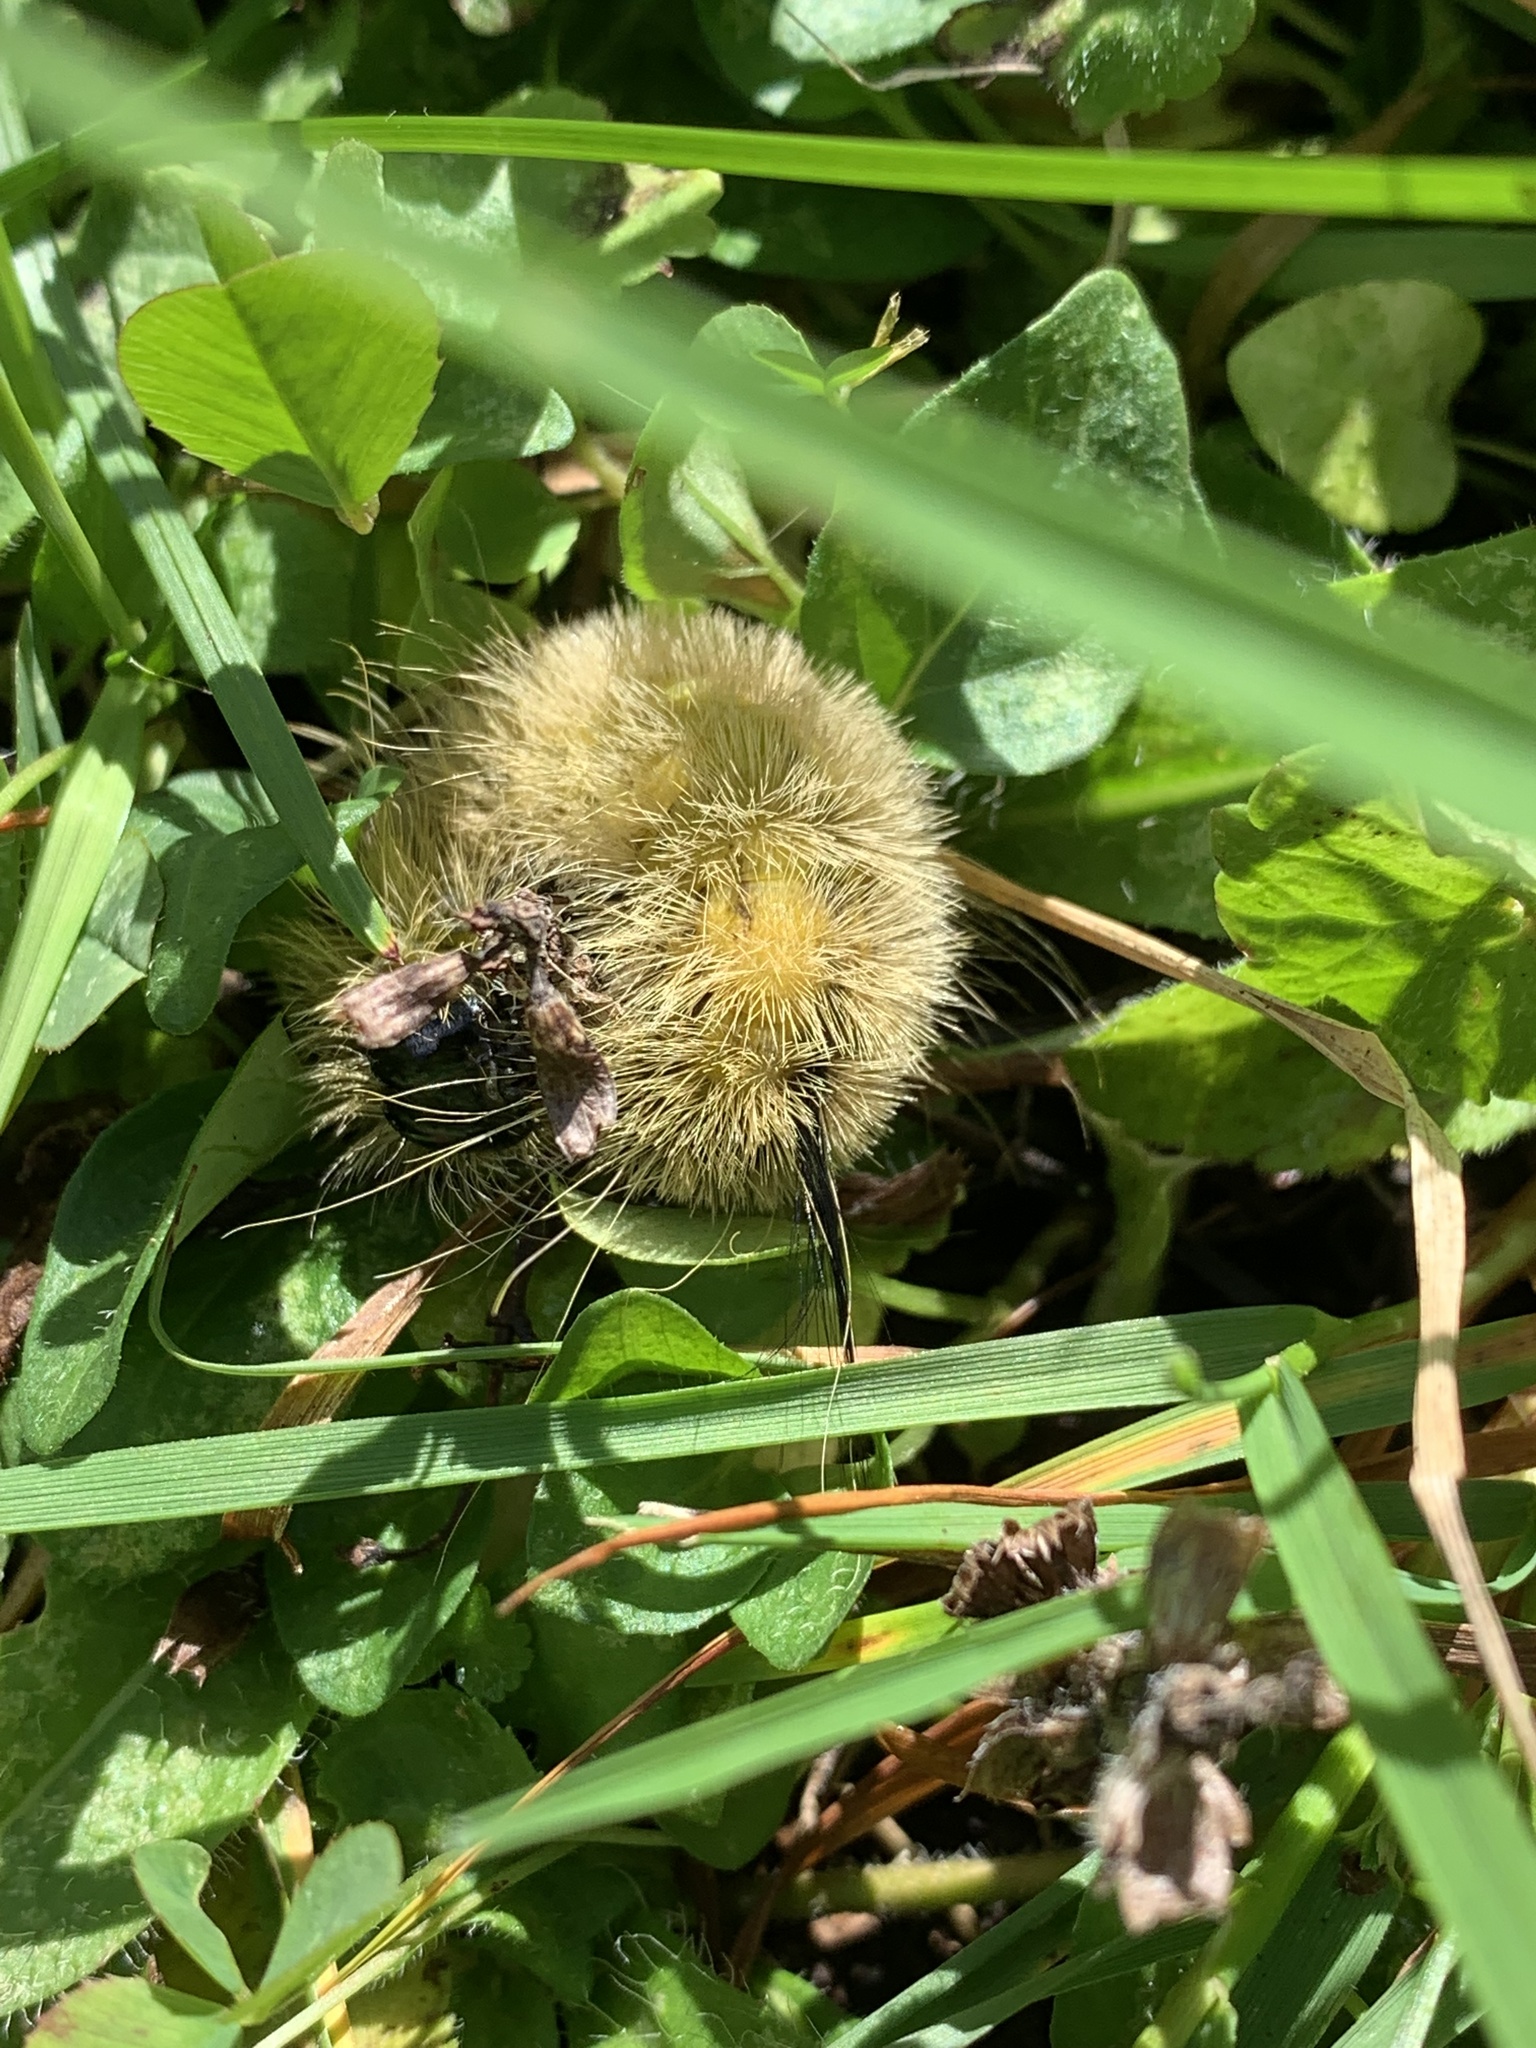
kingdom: Animalia
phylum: Arthropoda
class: Insecta
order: Lepidoptera
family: Noctuidae
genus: Acronicta
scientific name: Acronicta americana
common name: American dagger
